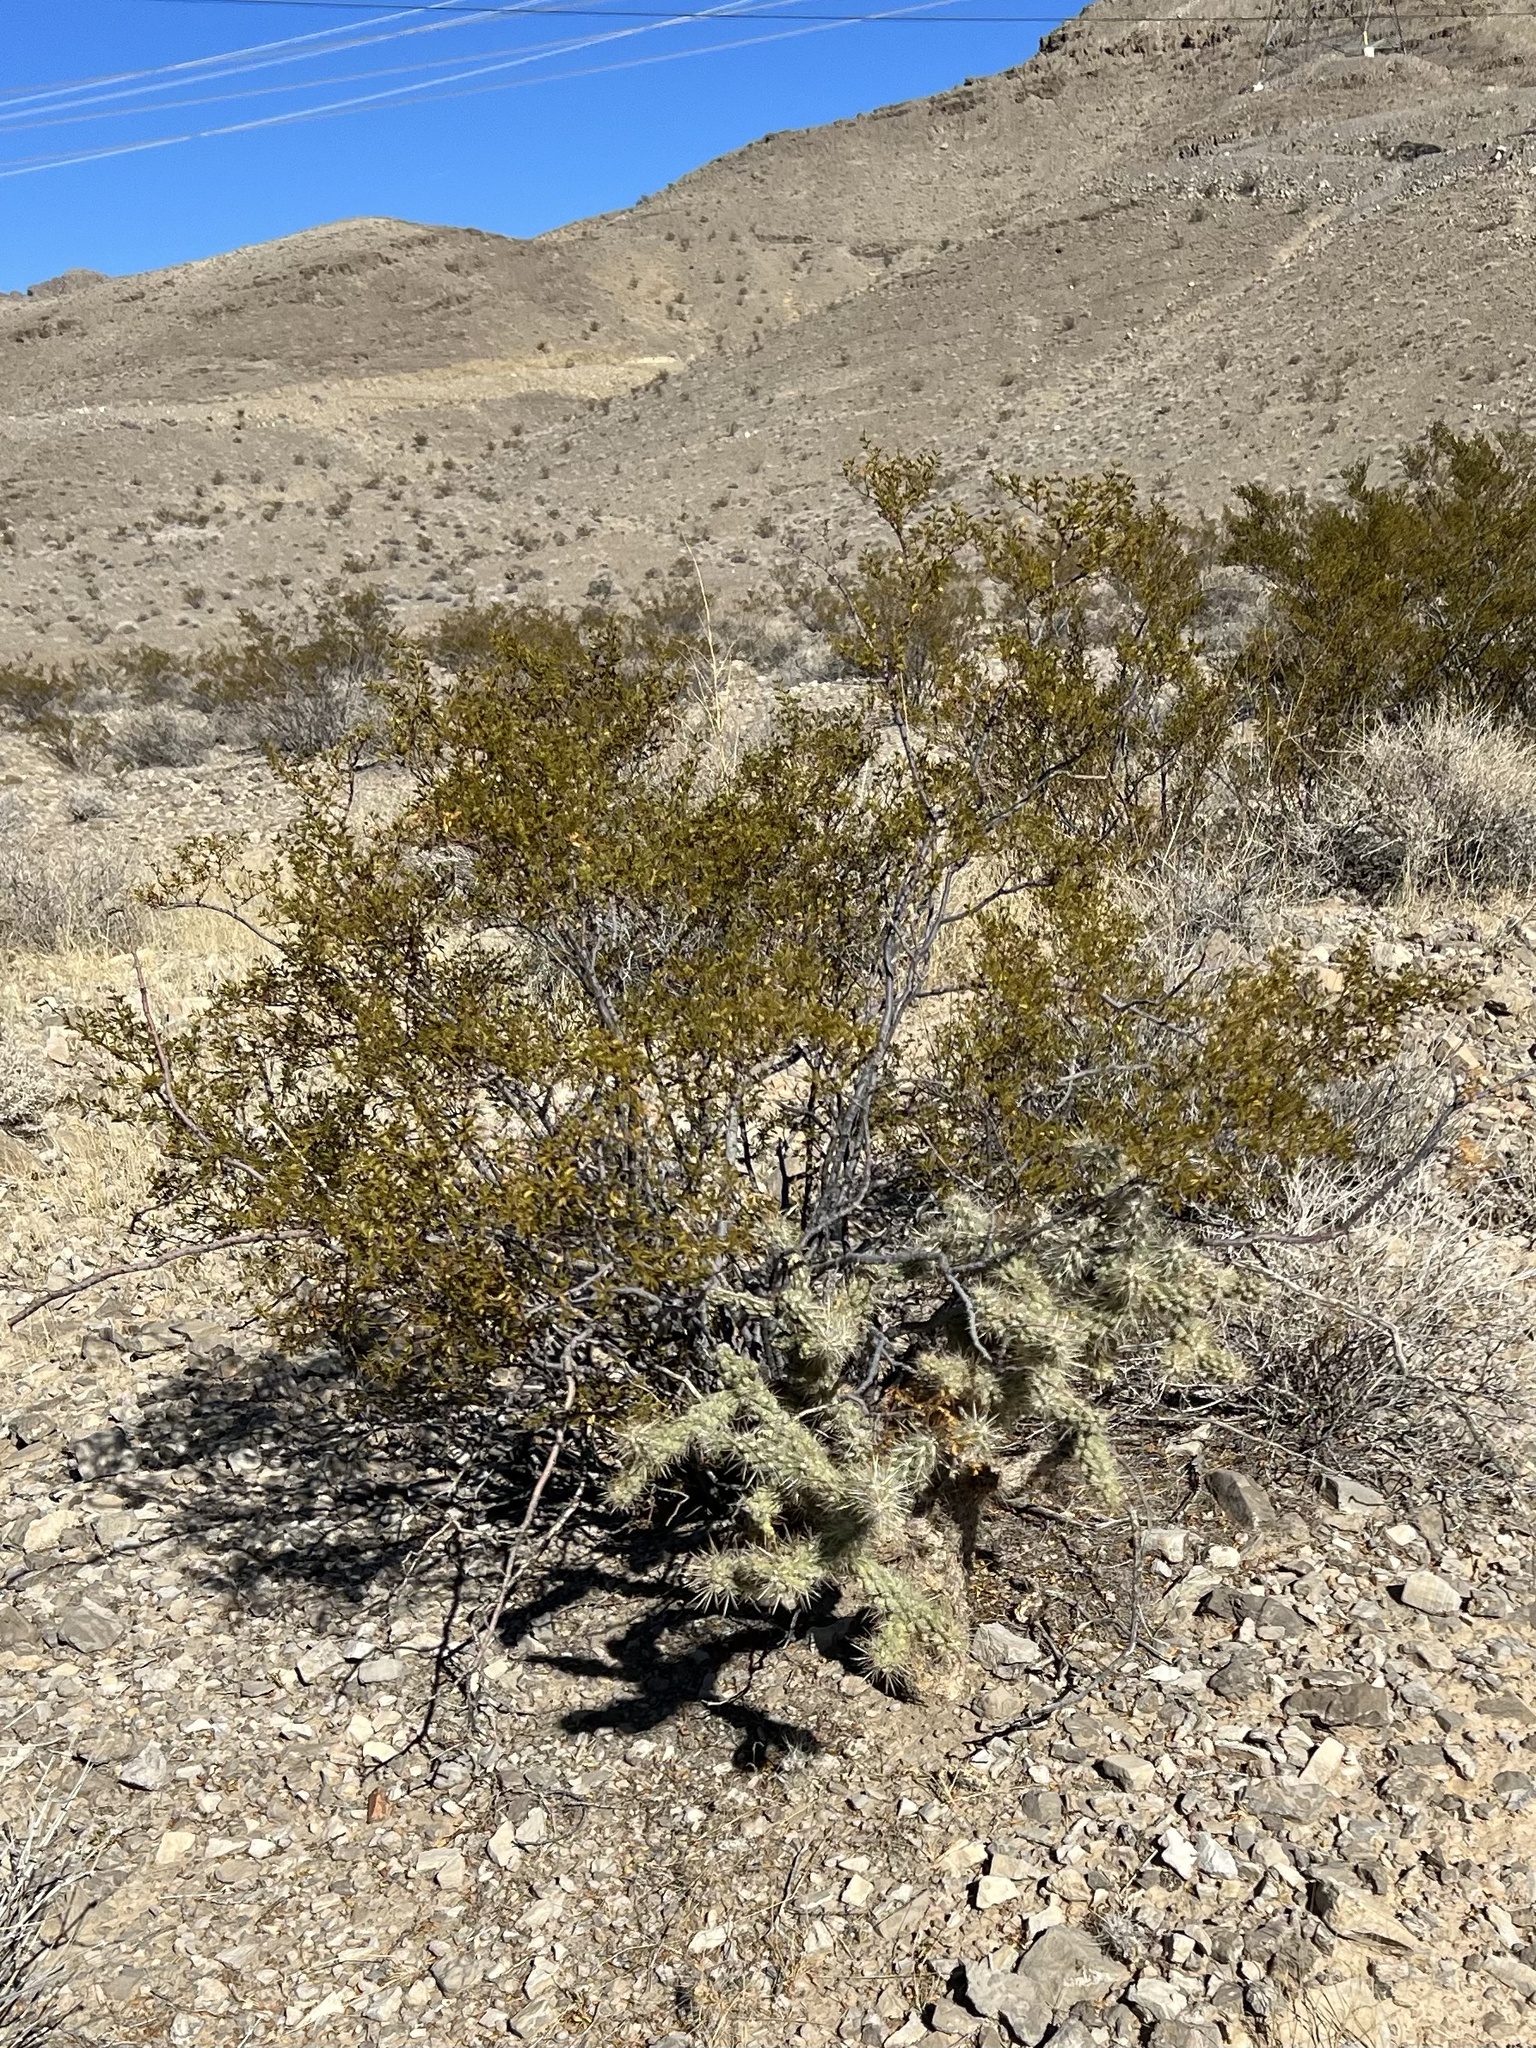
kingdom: Plantae
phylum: Tracheophyta
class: Magnoliopsida
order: Zygophyllales
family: Zygophyllaceae
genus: Larrea
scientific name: Larrea tridentata
